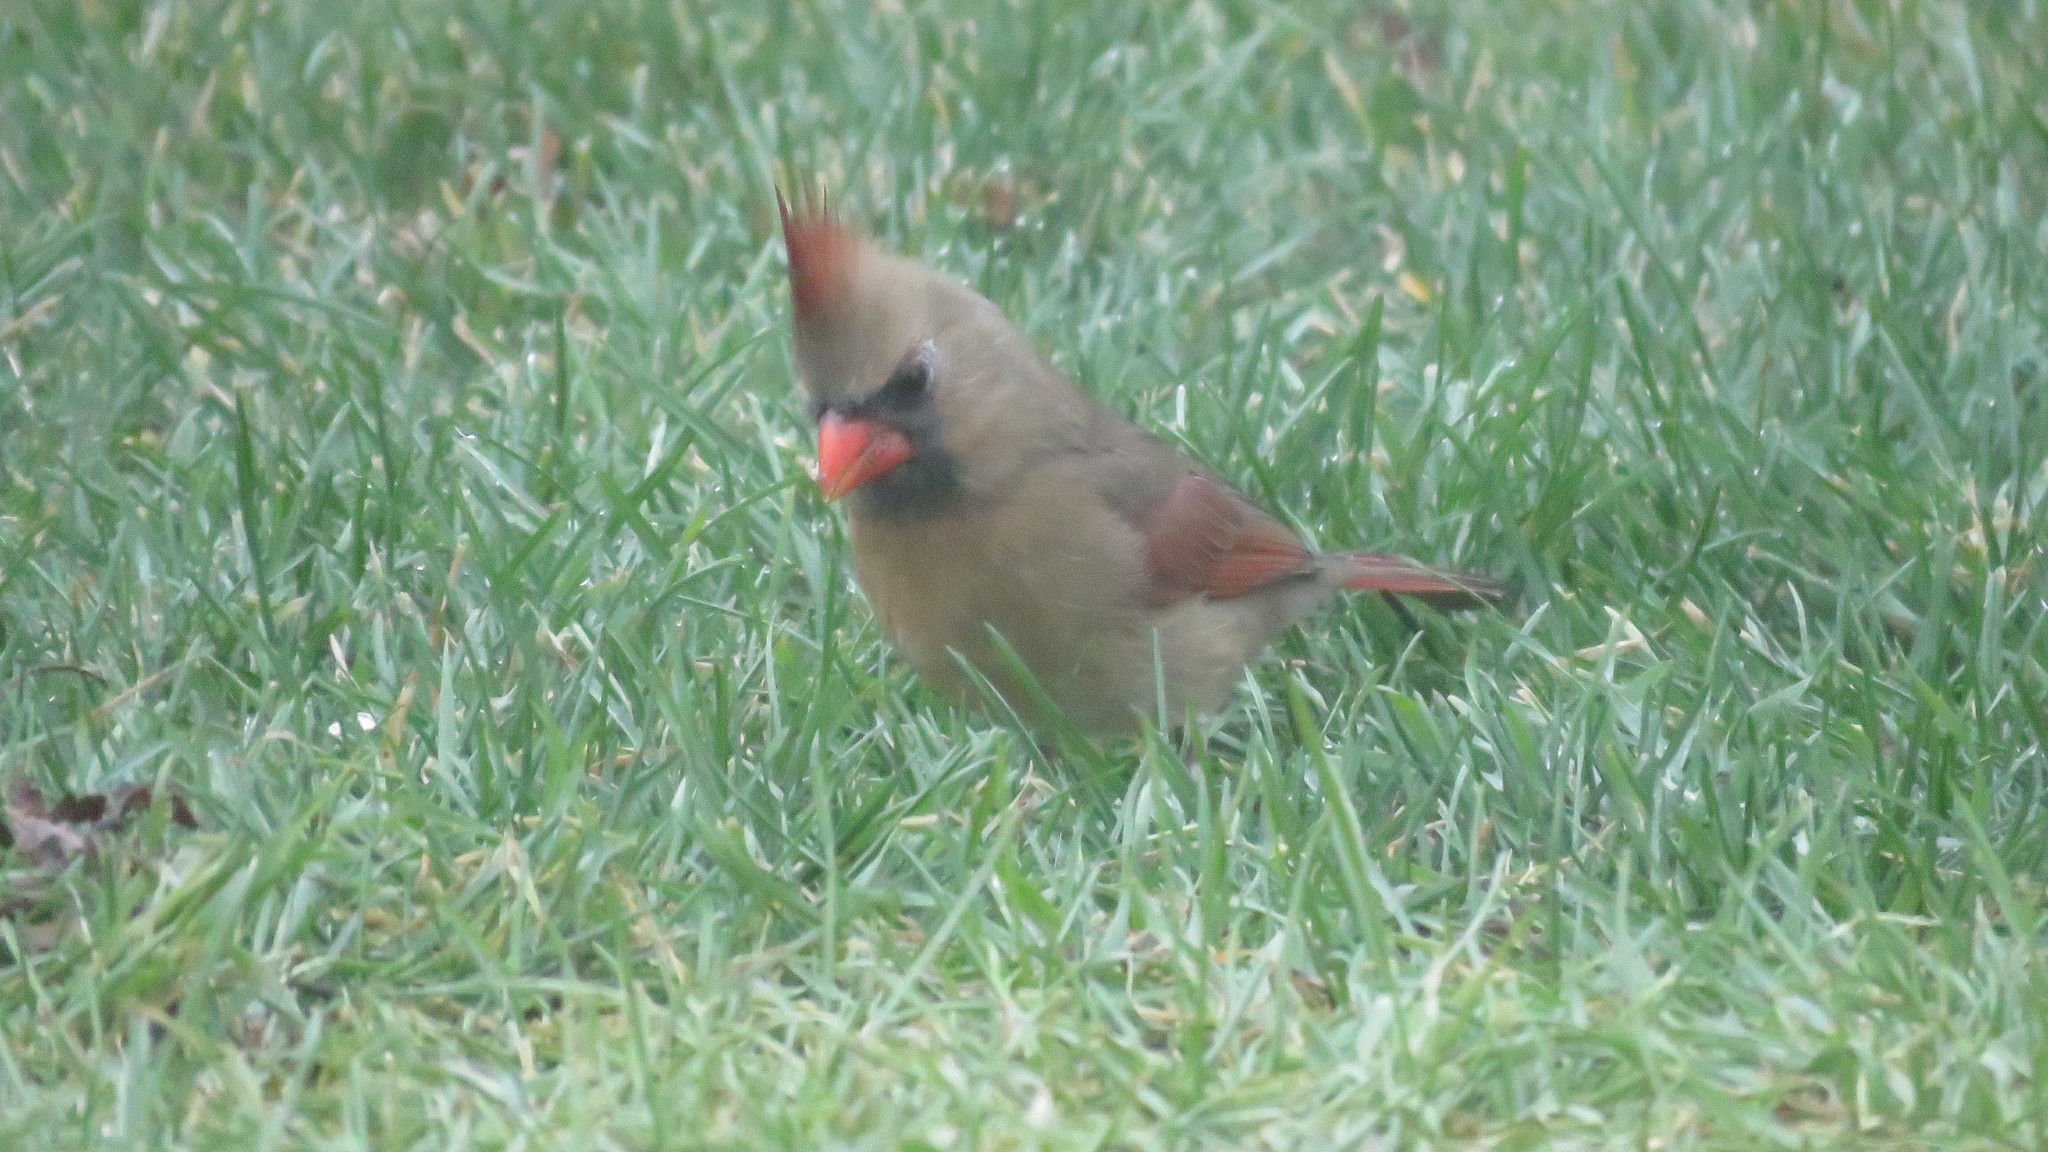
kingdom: Animalia
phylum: Chordata
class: Aves
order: Passeriformes
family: Cardinalidae
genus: Cardinalis
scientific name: Cardinalis cardinalis
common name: Northern cardinal
